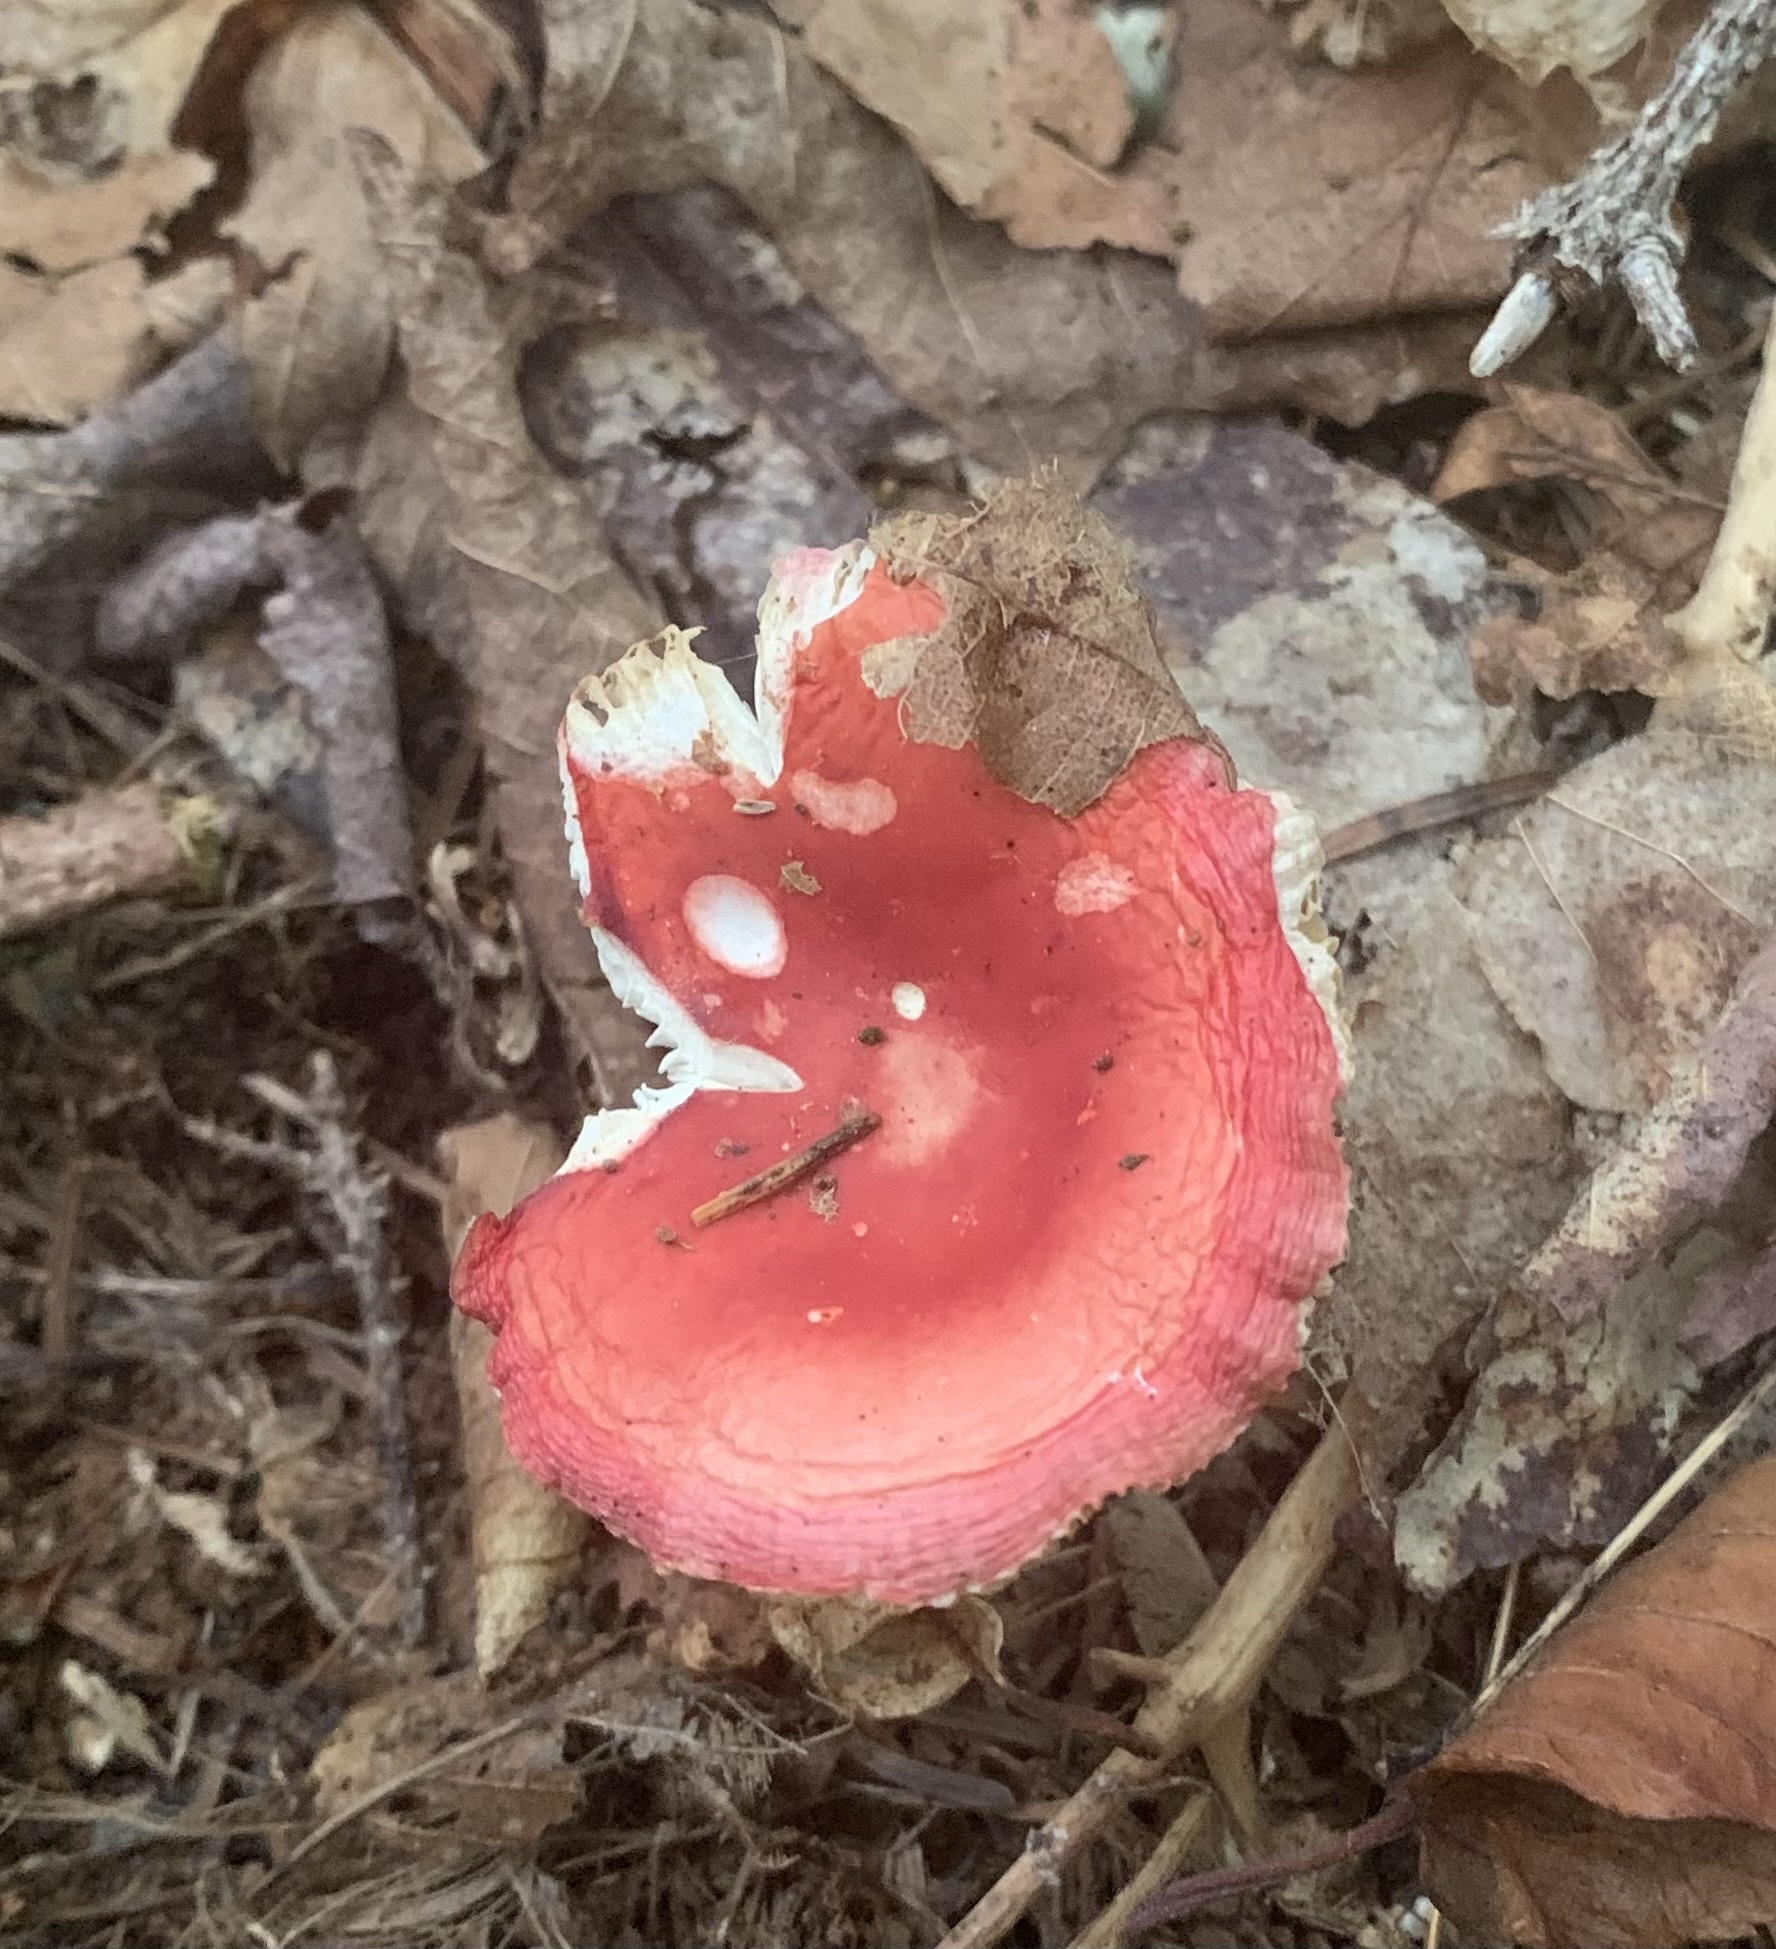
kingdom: Fungi
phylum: Basidiomycota
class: Agaricomycetes
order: Russulales
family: Russulaceae
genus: Russula
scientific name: Russula
